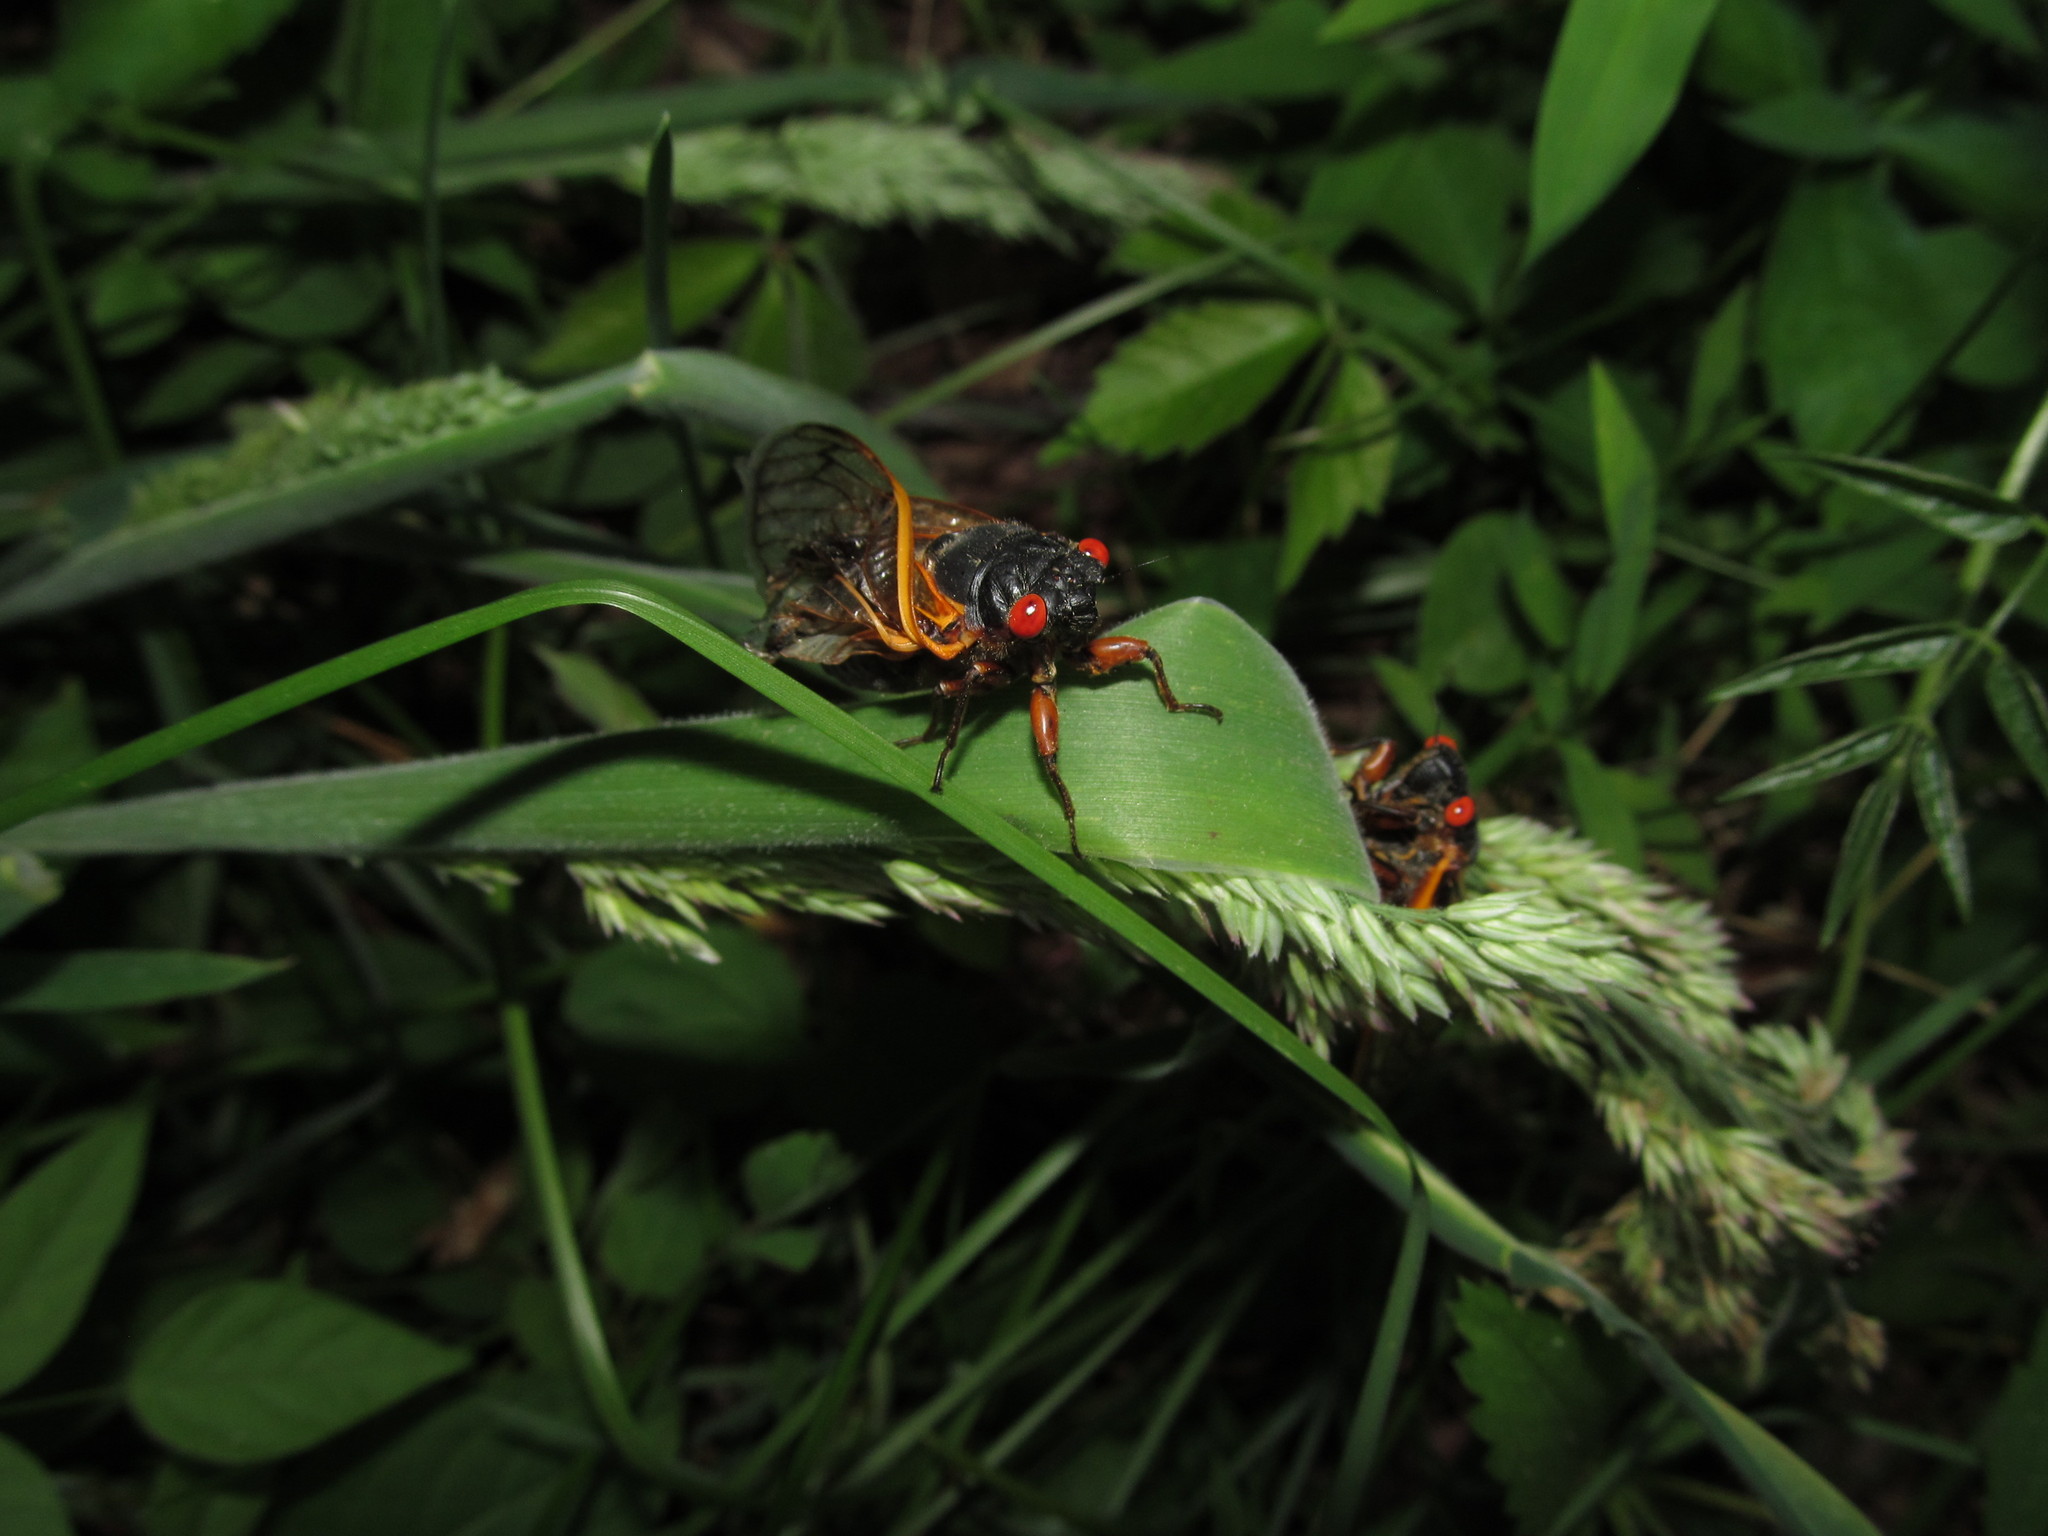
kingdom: Animalia
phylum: Arthropoda
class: Insecta
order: Hemiptera
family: Cicadidae
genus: Magicicada
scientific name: Magicicada septendecim
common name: Periodical cicada
